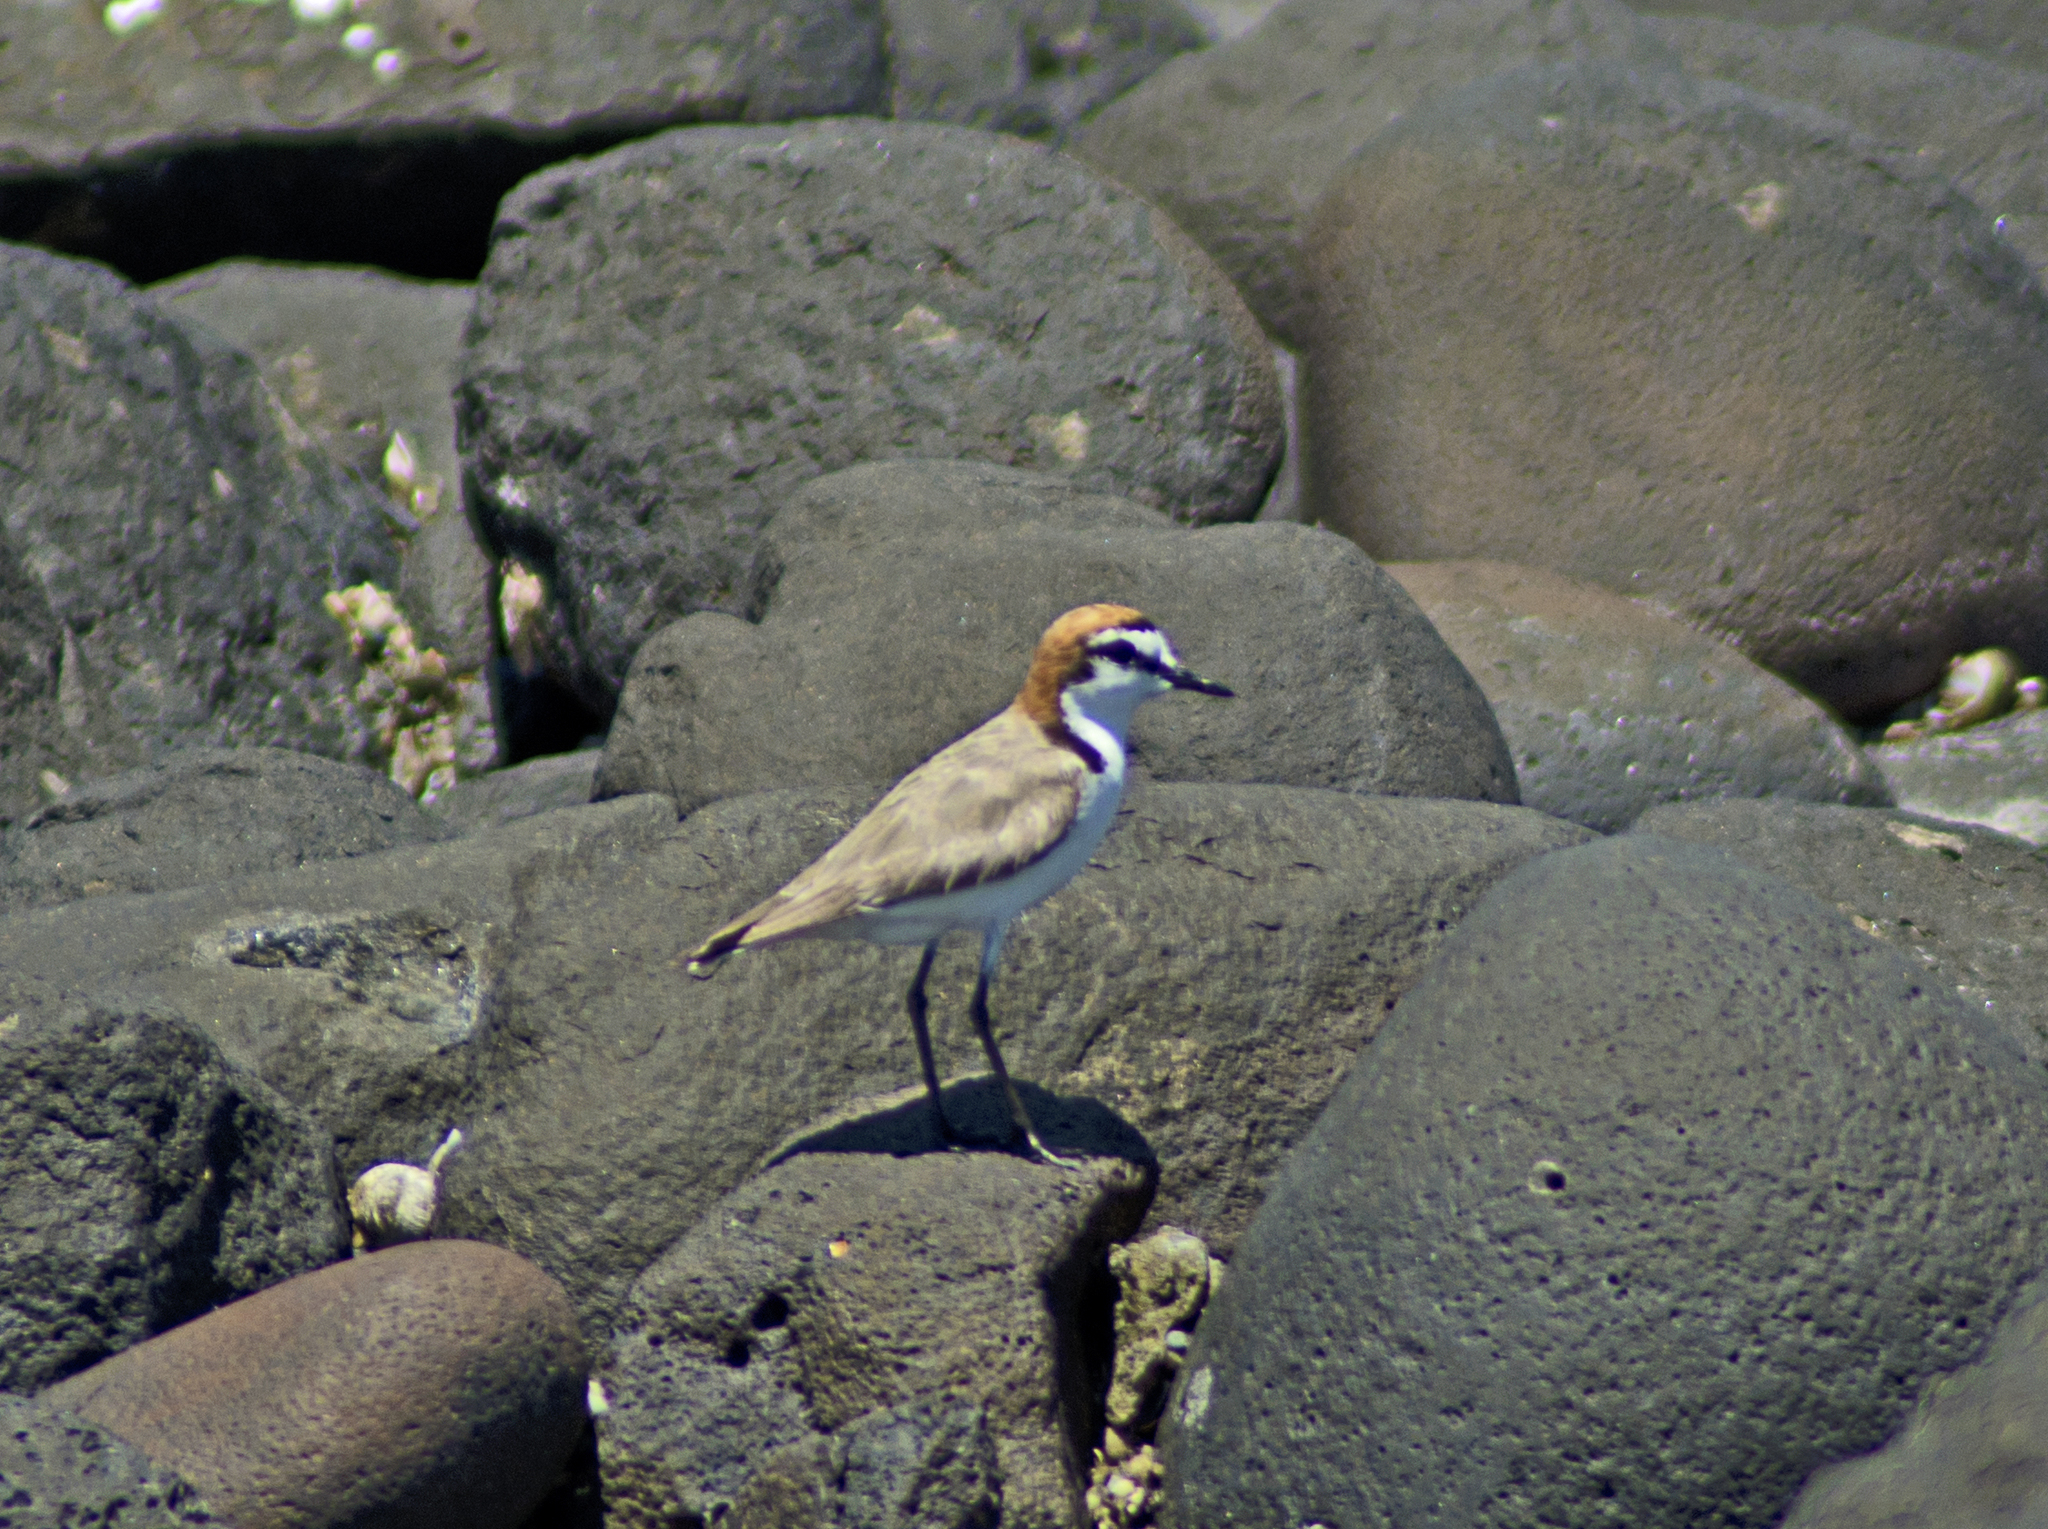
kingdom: Animalia
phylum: Chordata
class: Aves
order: Charadriiformes
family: Charadriidae
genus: Anarhynchus
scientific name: Anarhynchus
